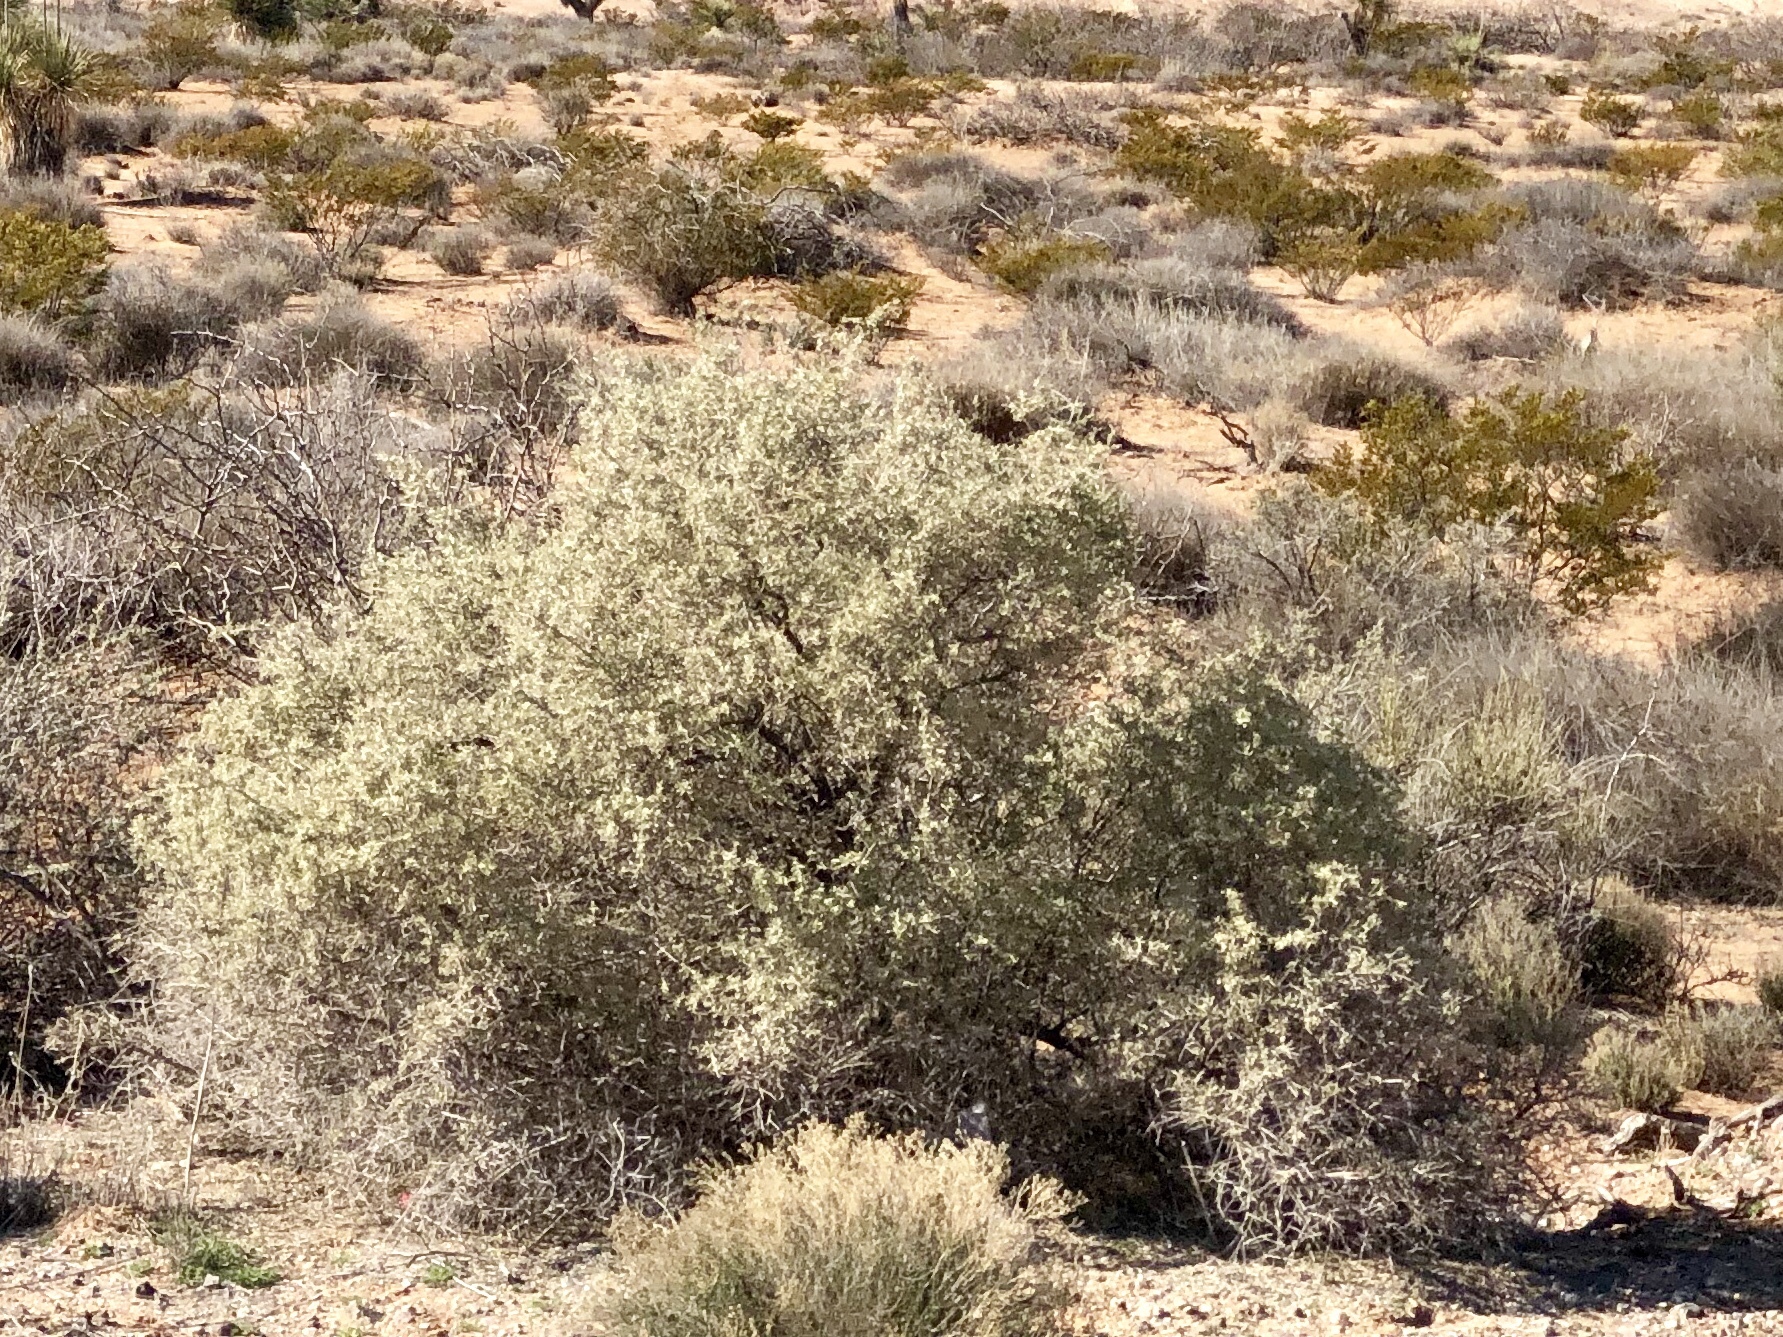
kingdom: Plantae
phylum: Tracheophyta
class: Magnoliopsida
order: Caryophyllales
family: Amaranthaceae
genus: Atriplex
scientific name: Atriplex canescens
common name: Four-wing saltbush
